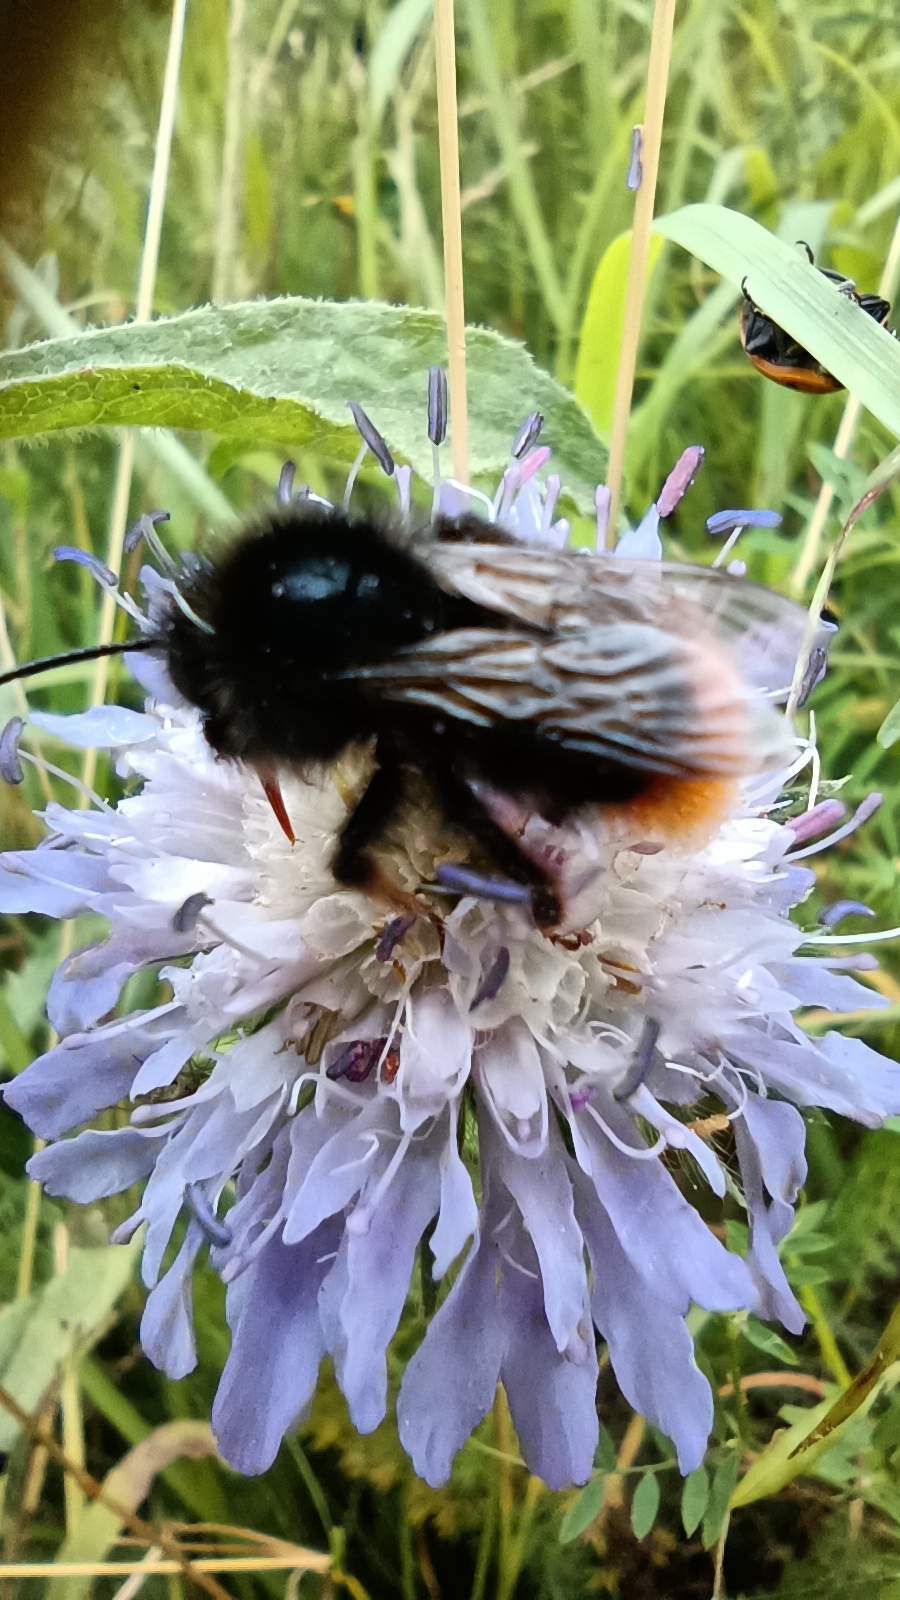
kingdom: Animalia
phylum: Arthropoda
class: Insecta
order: Hymenoptera
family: Apidae
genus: Bombus
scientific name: Bombus lapidarius
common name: Large red-tailed humble-bee
